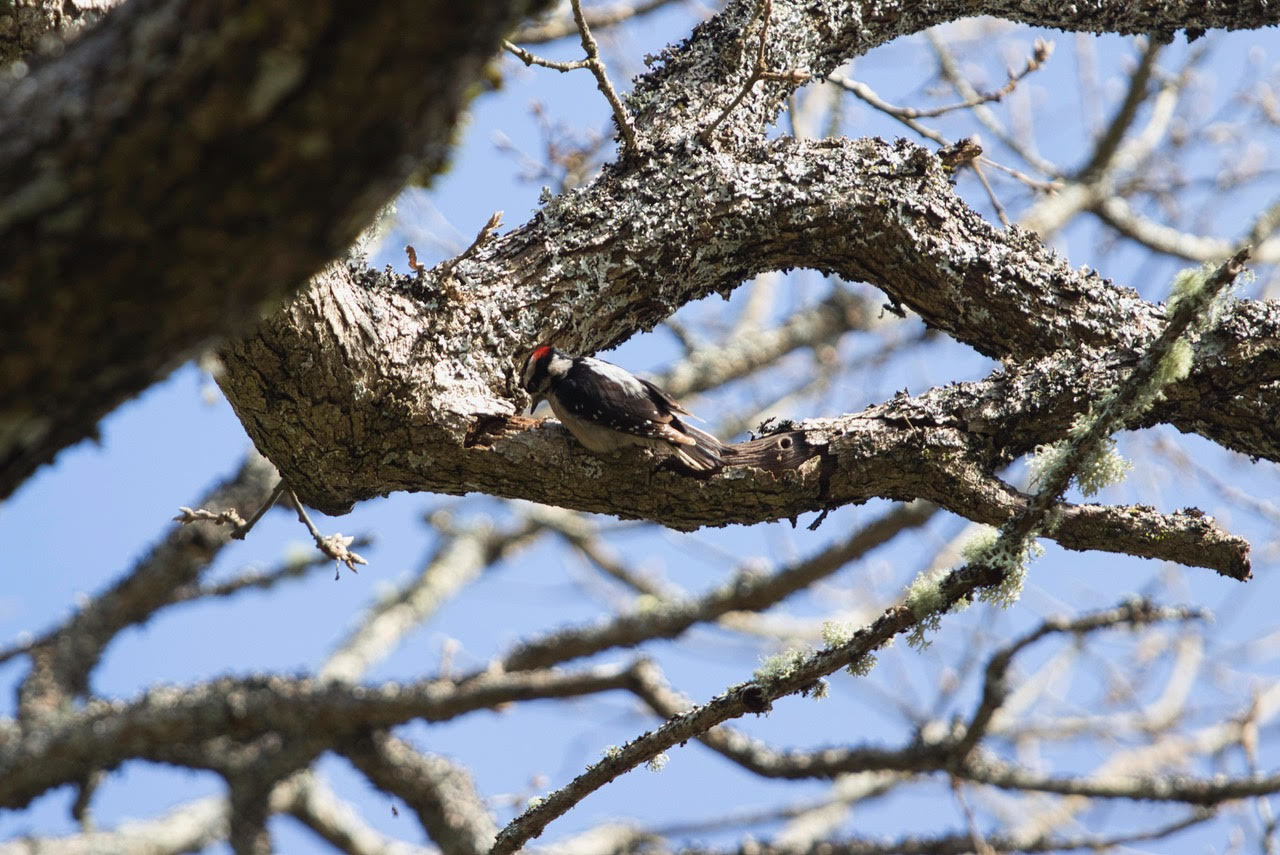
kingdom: Animalia
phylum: Chordata
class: Aves
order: Piciformes
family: Picidae
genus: Dryobates
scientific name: Dryobates pubescens
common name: Downy woodpecker
